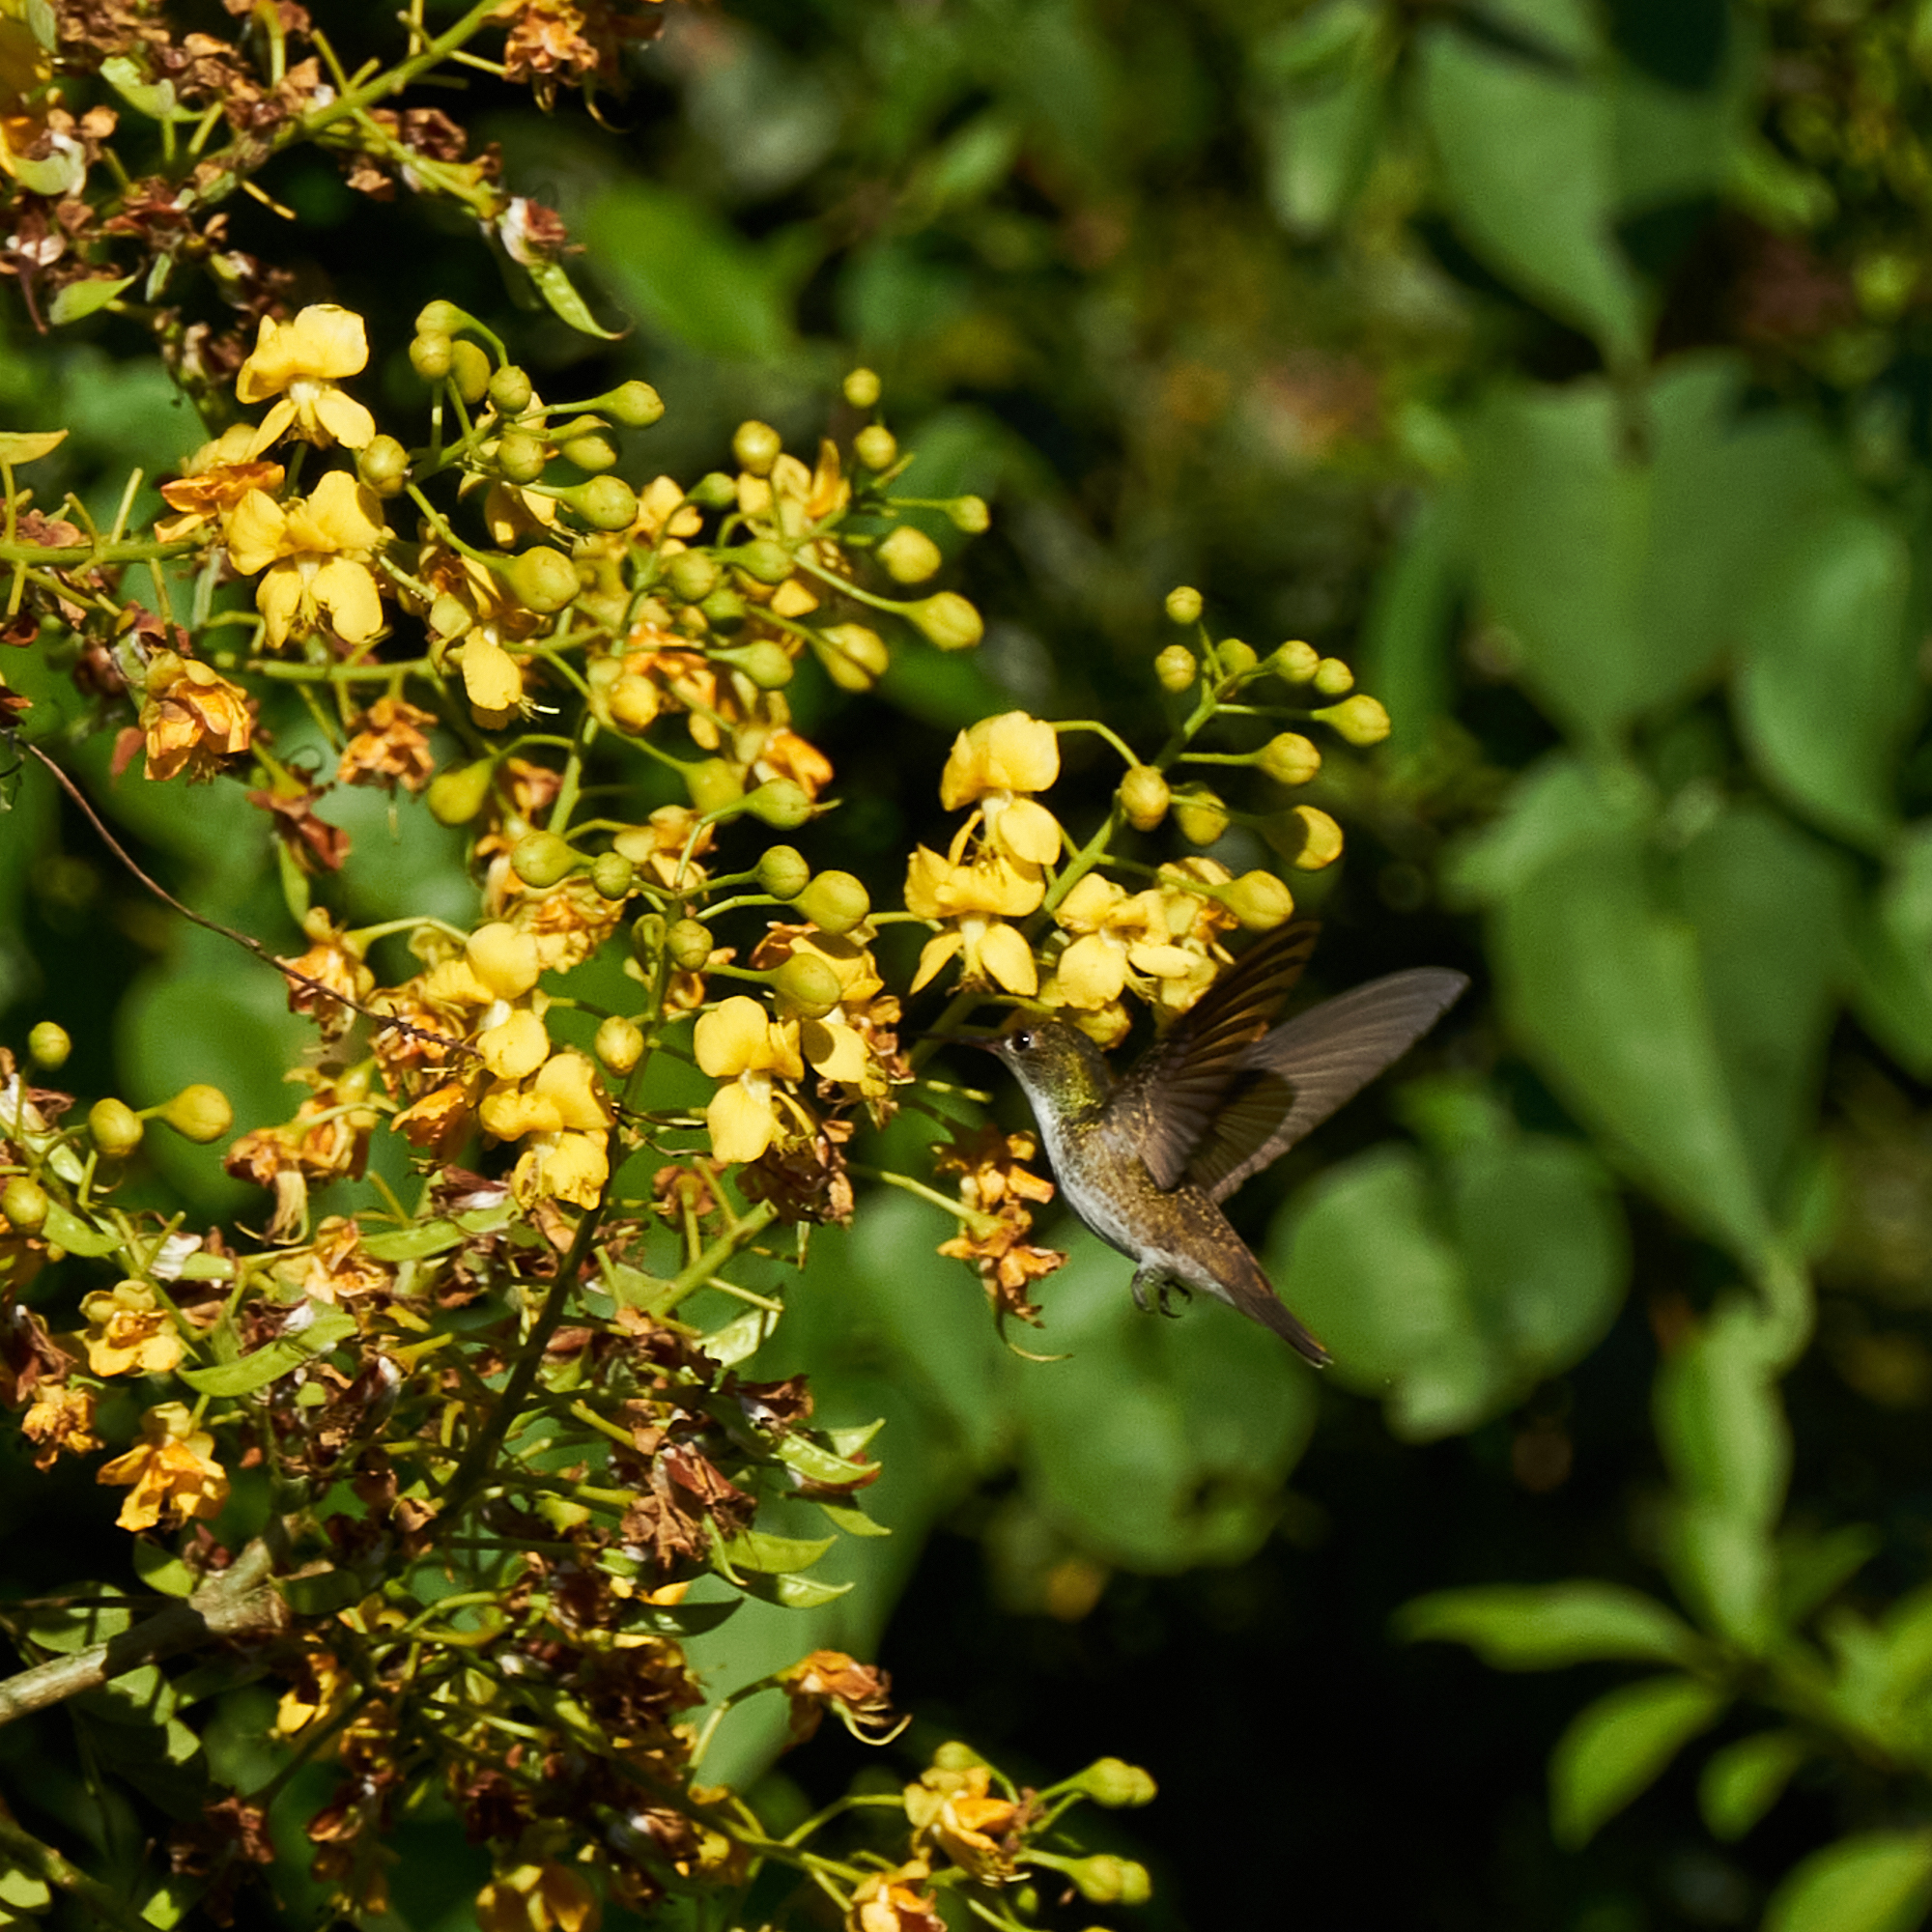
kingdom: Animalia
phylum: Chordata
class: Aves
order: Apodiformes
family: Trochilidae
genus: Chlorestes
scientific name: Chlorestes candida
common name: White-bellied emerald
